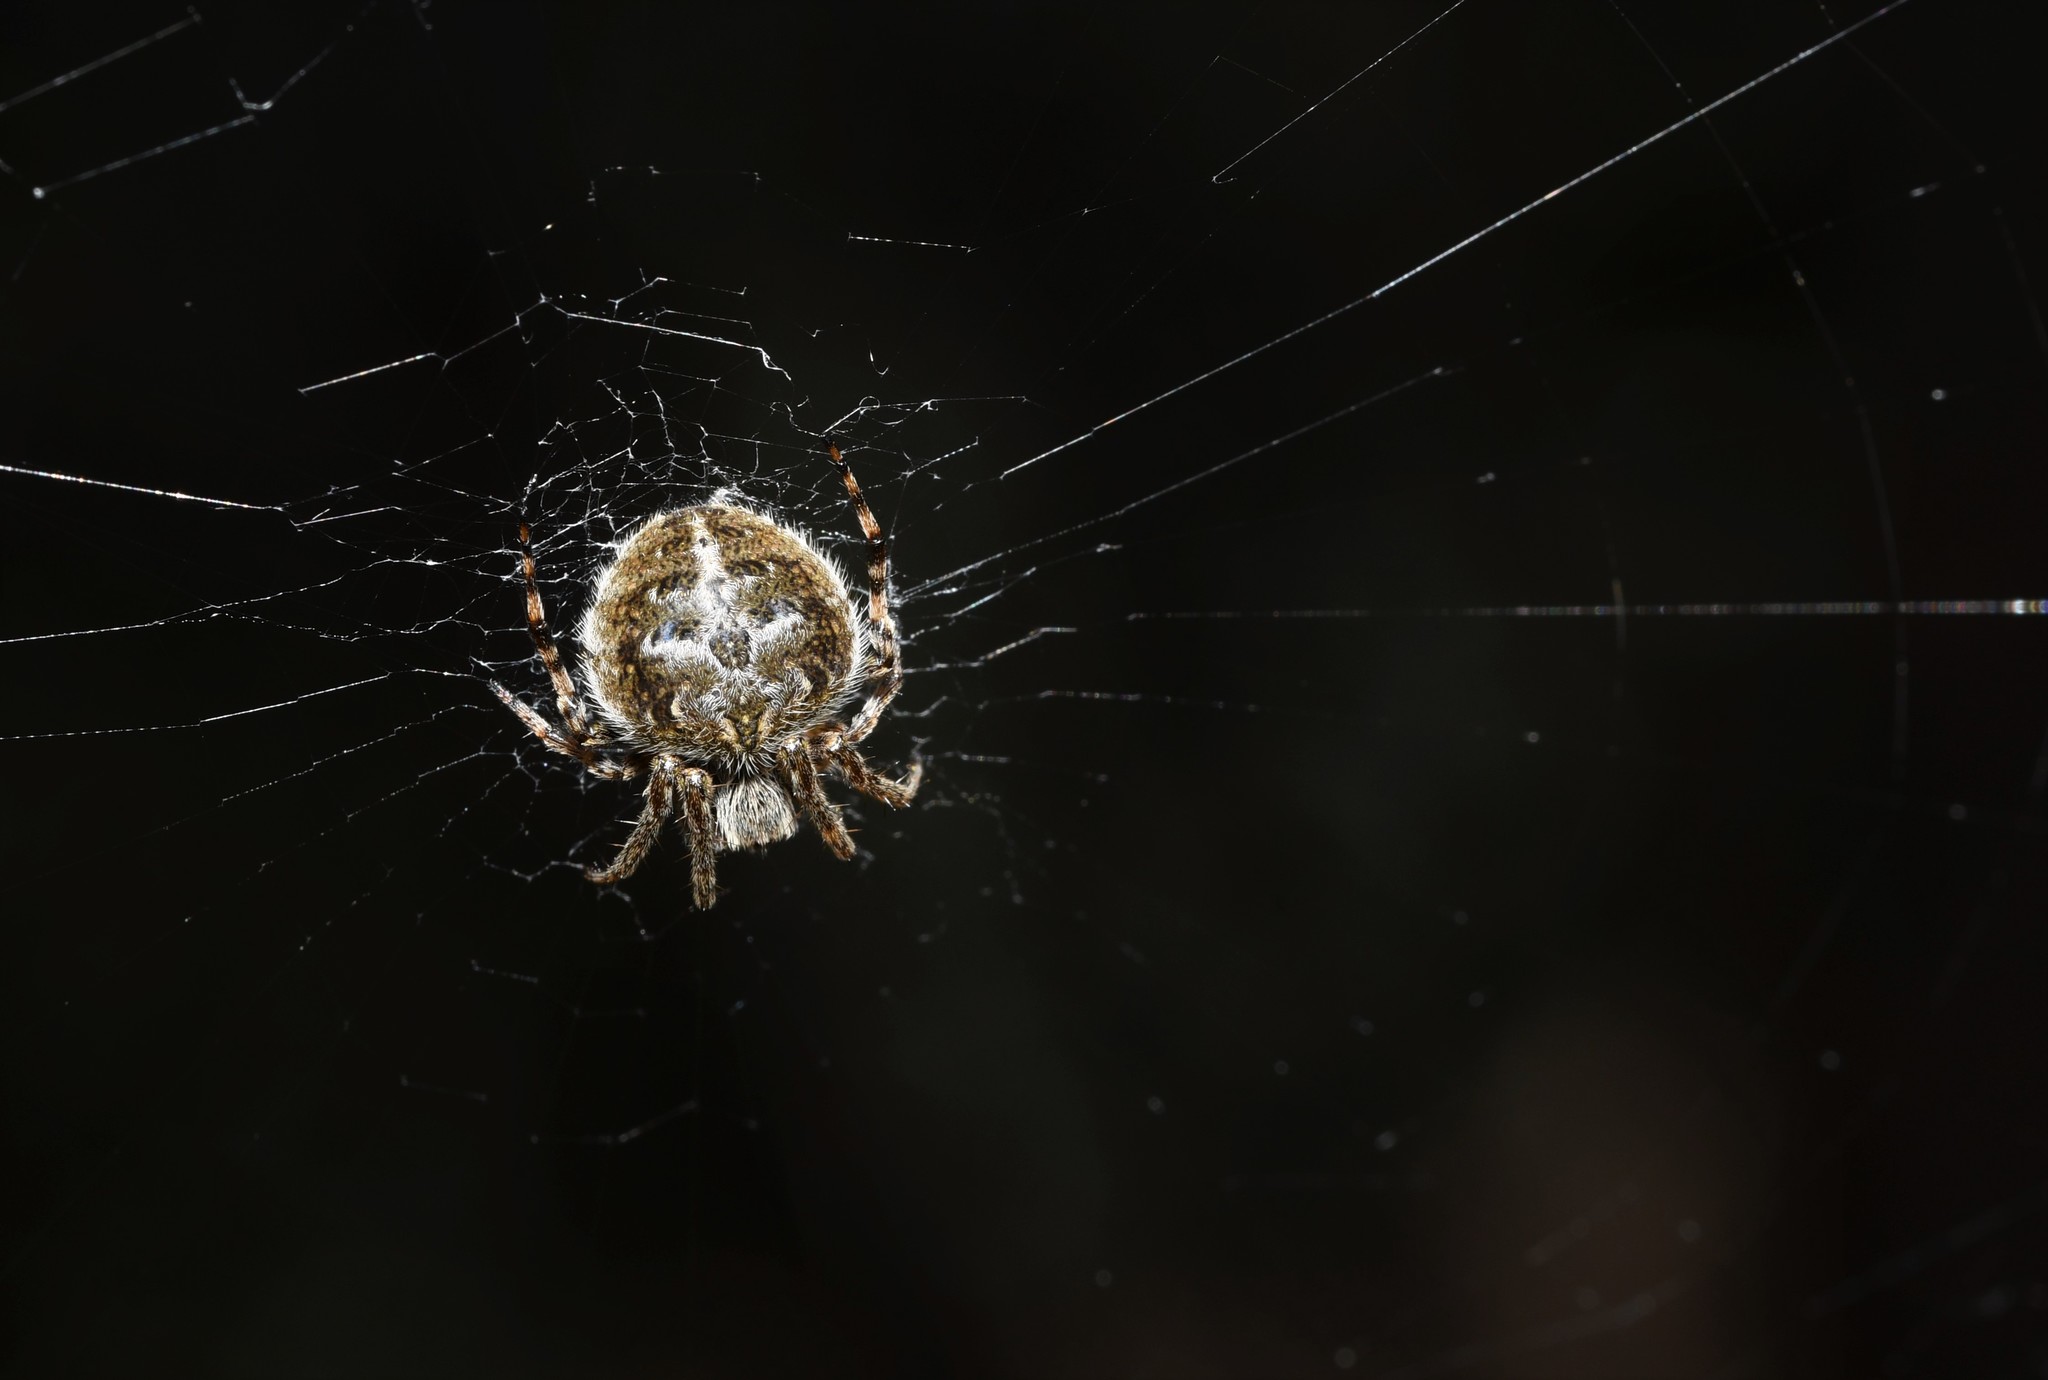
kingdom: Animalia
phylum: Arthropoda
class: Arachnida
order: Araneae
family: Araneidae
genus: Agalenatea
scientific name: Agalenatea redii
